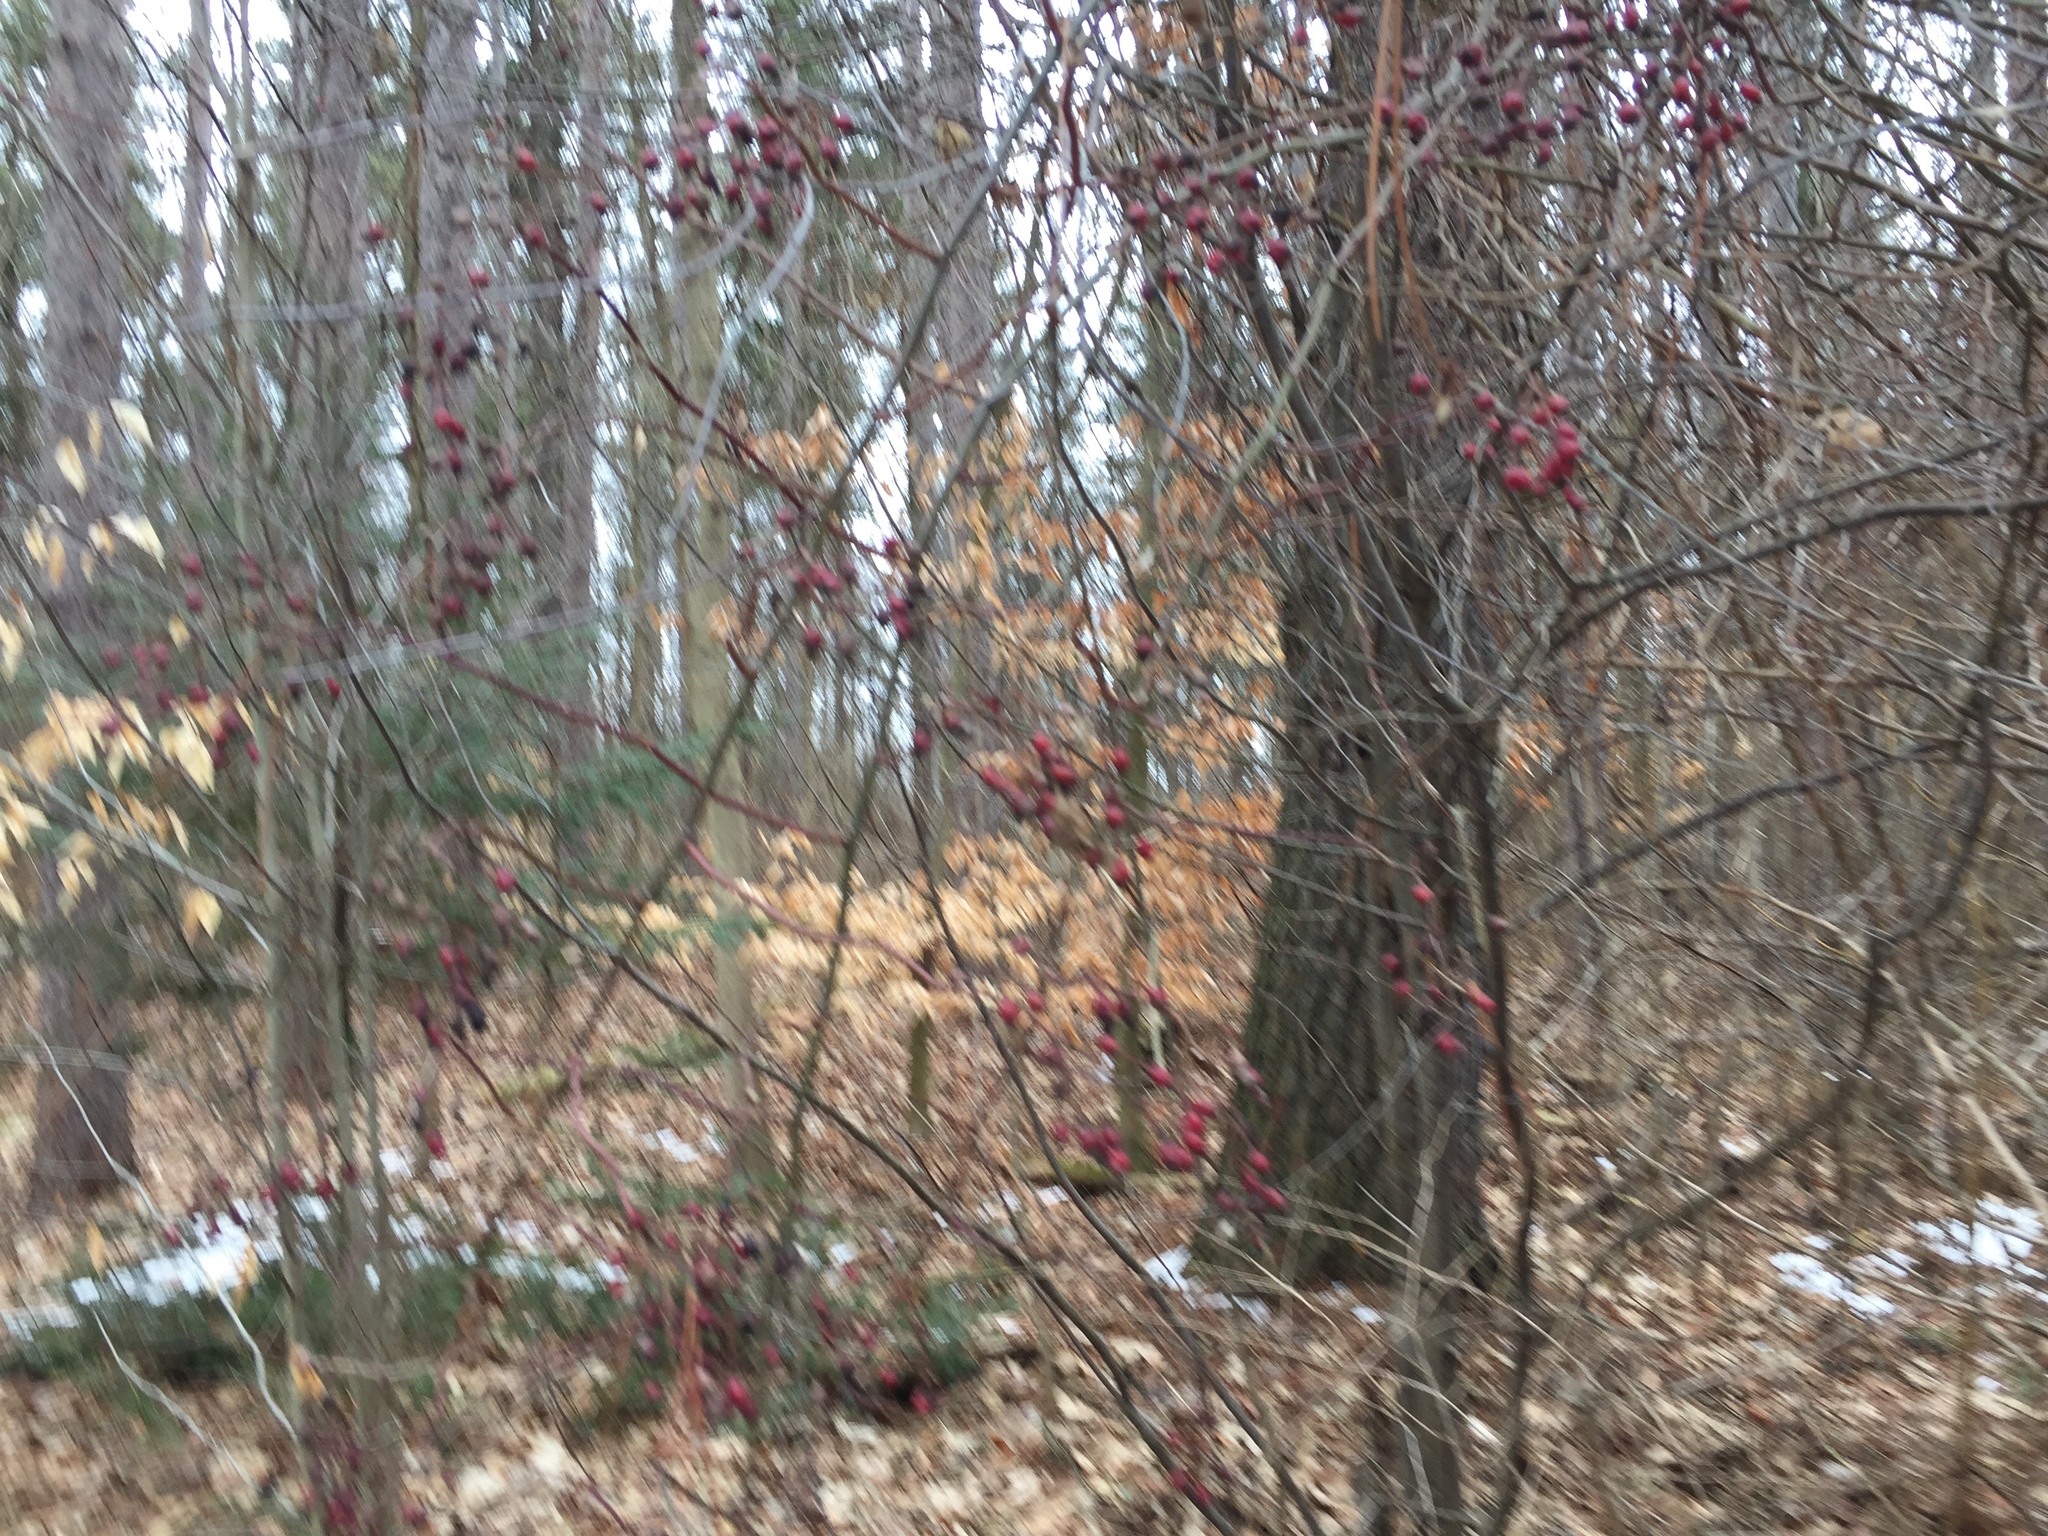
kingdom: Plantae
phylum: Tracheophyta
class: Magnoliopsida
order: Rosales
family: Rosaceae
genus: Rosa
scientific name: Rosa multiflora
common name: Multiflora rose
